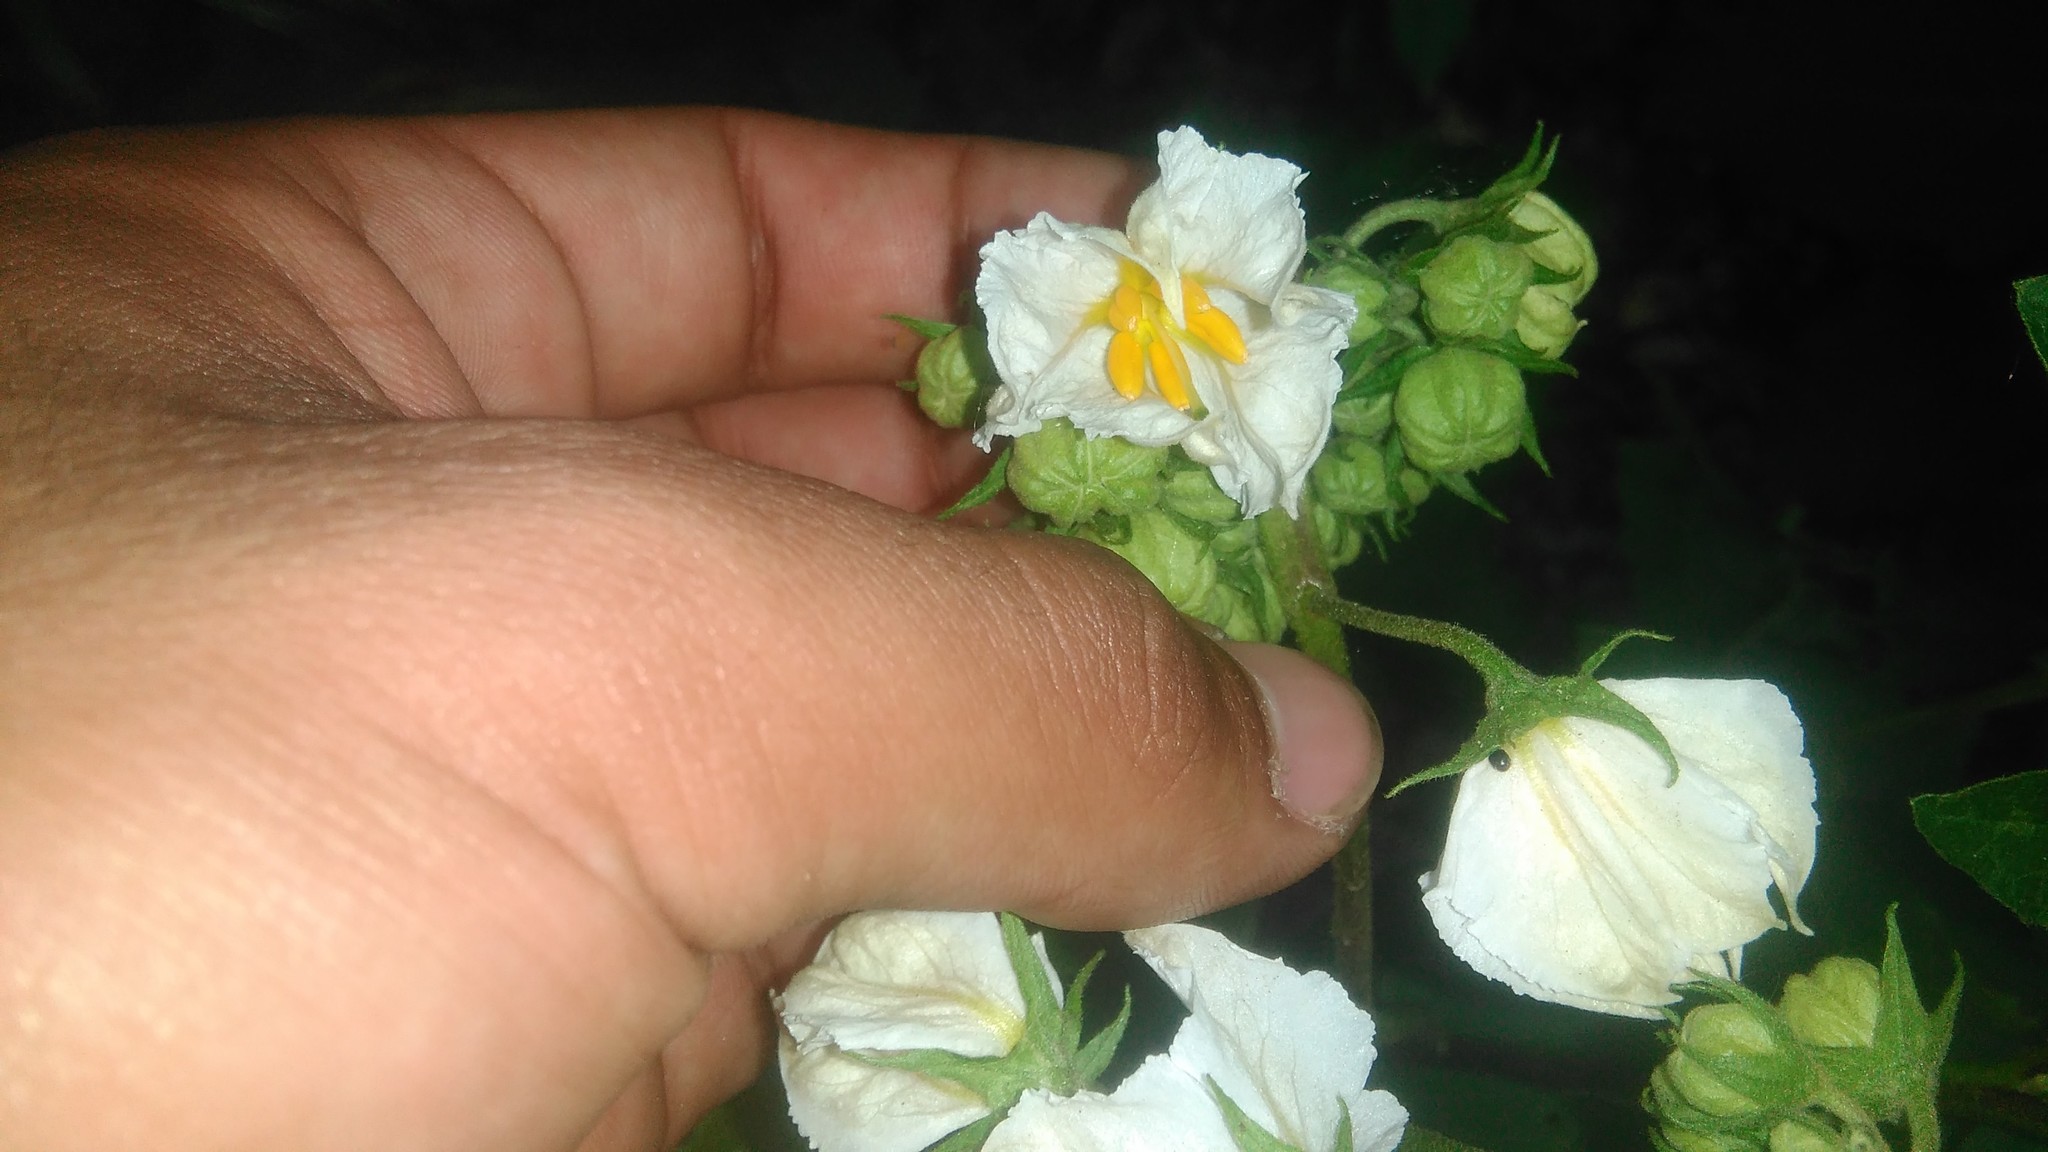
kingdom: Plantae
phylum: Tracheophyta
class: Magnoliopsida
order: Solanales
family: Solanaceae
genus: Solanum
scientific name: Solanum bonariense
